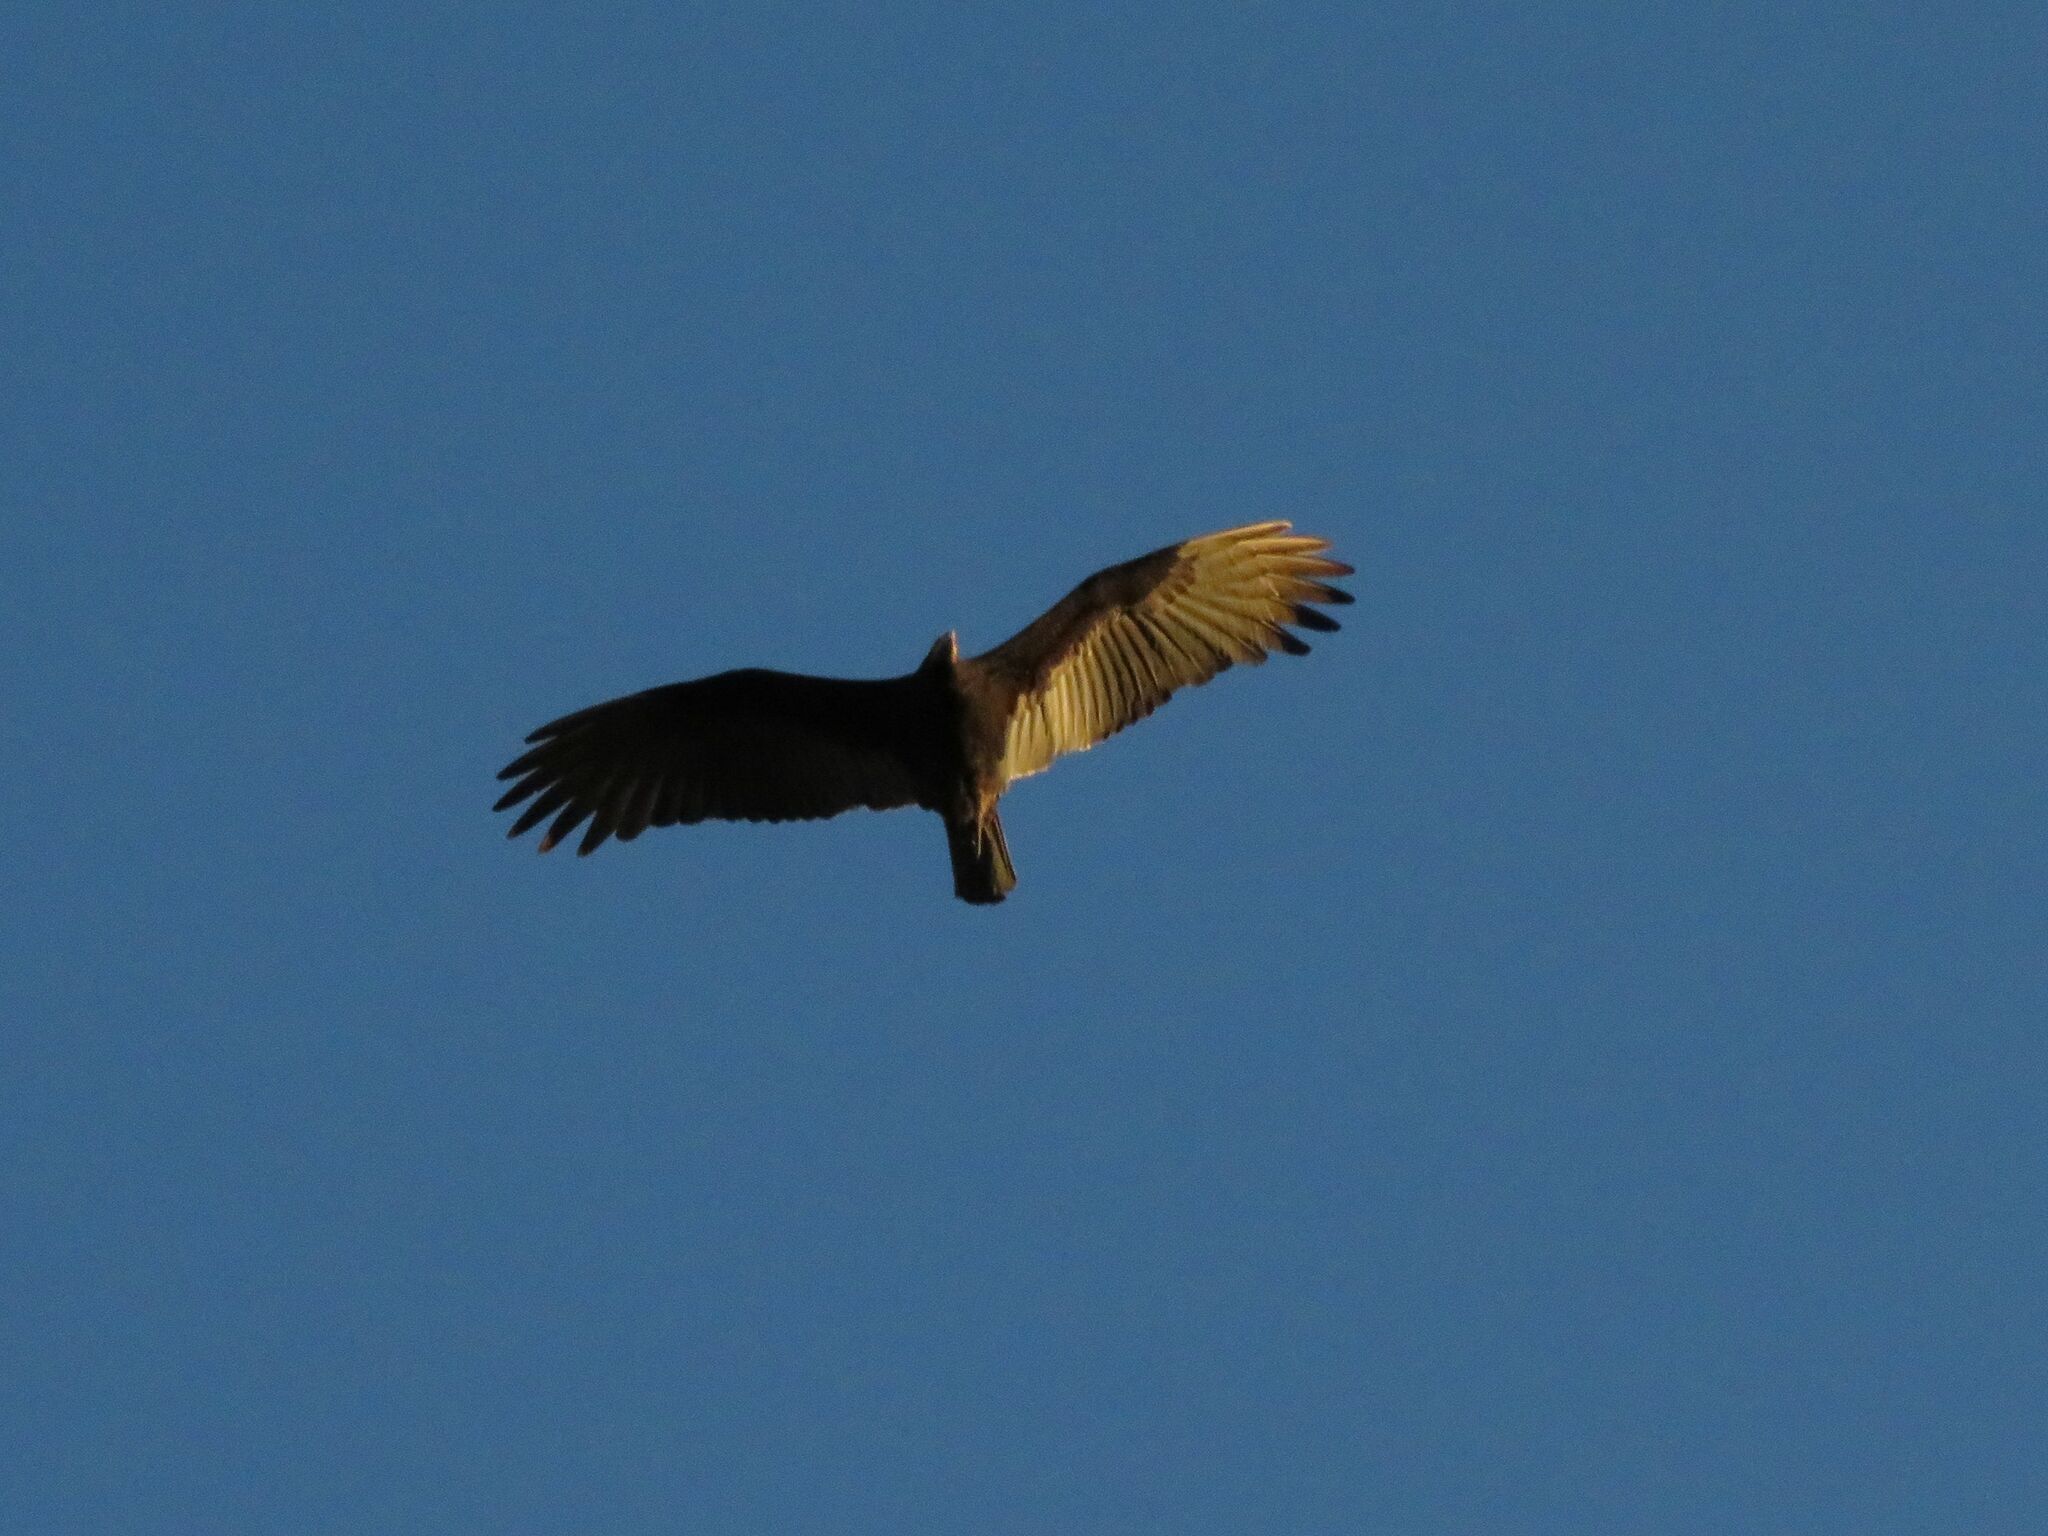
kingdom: Animalia
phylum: Chordata
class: Aves
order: Accipitriformes
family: Cathartidae
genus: Cathartes
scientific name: Cathartes burrovianus
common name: Lesser yellow-headed vulture
